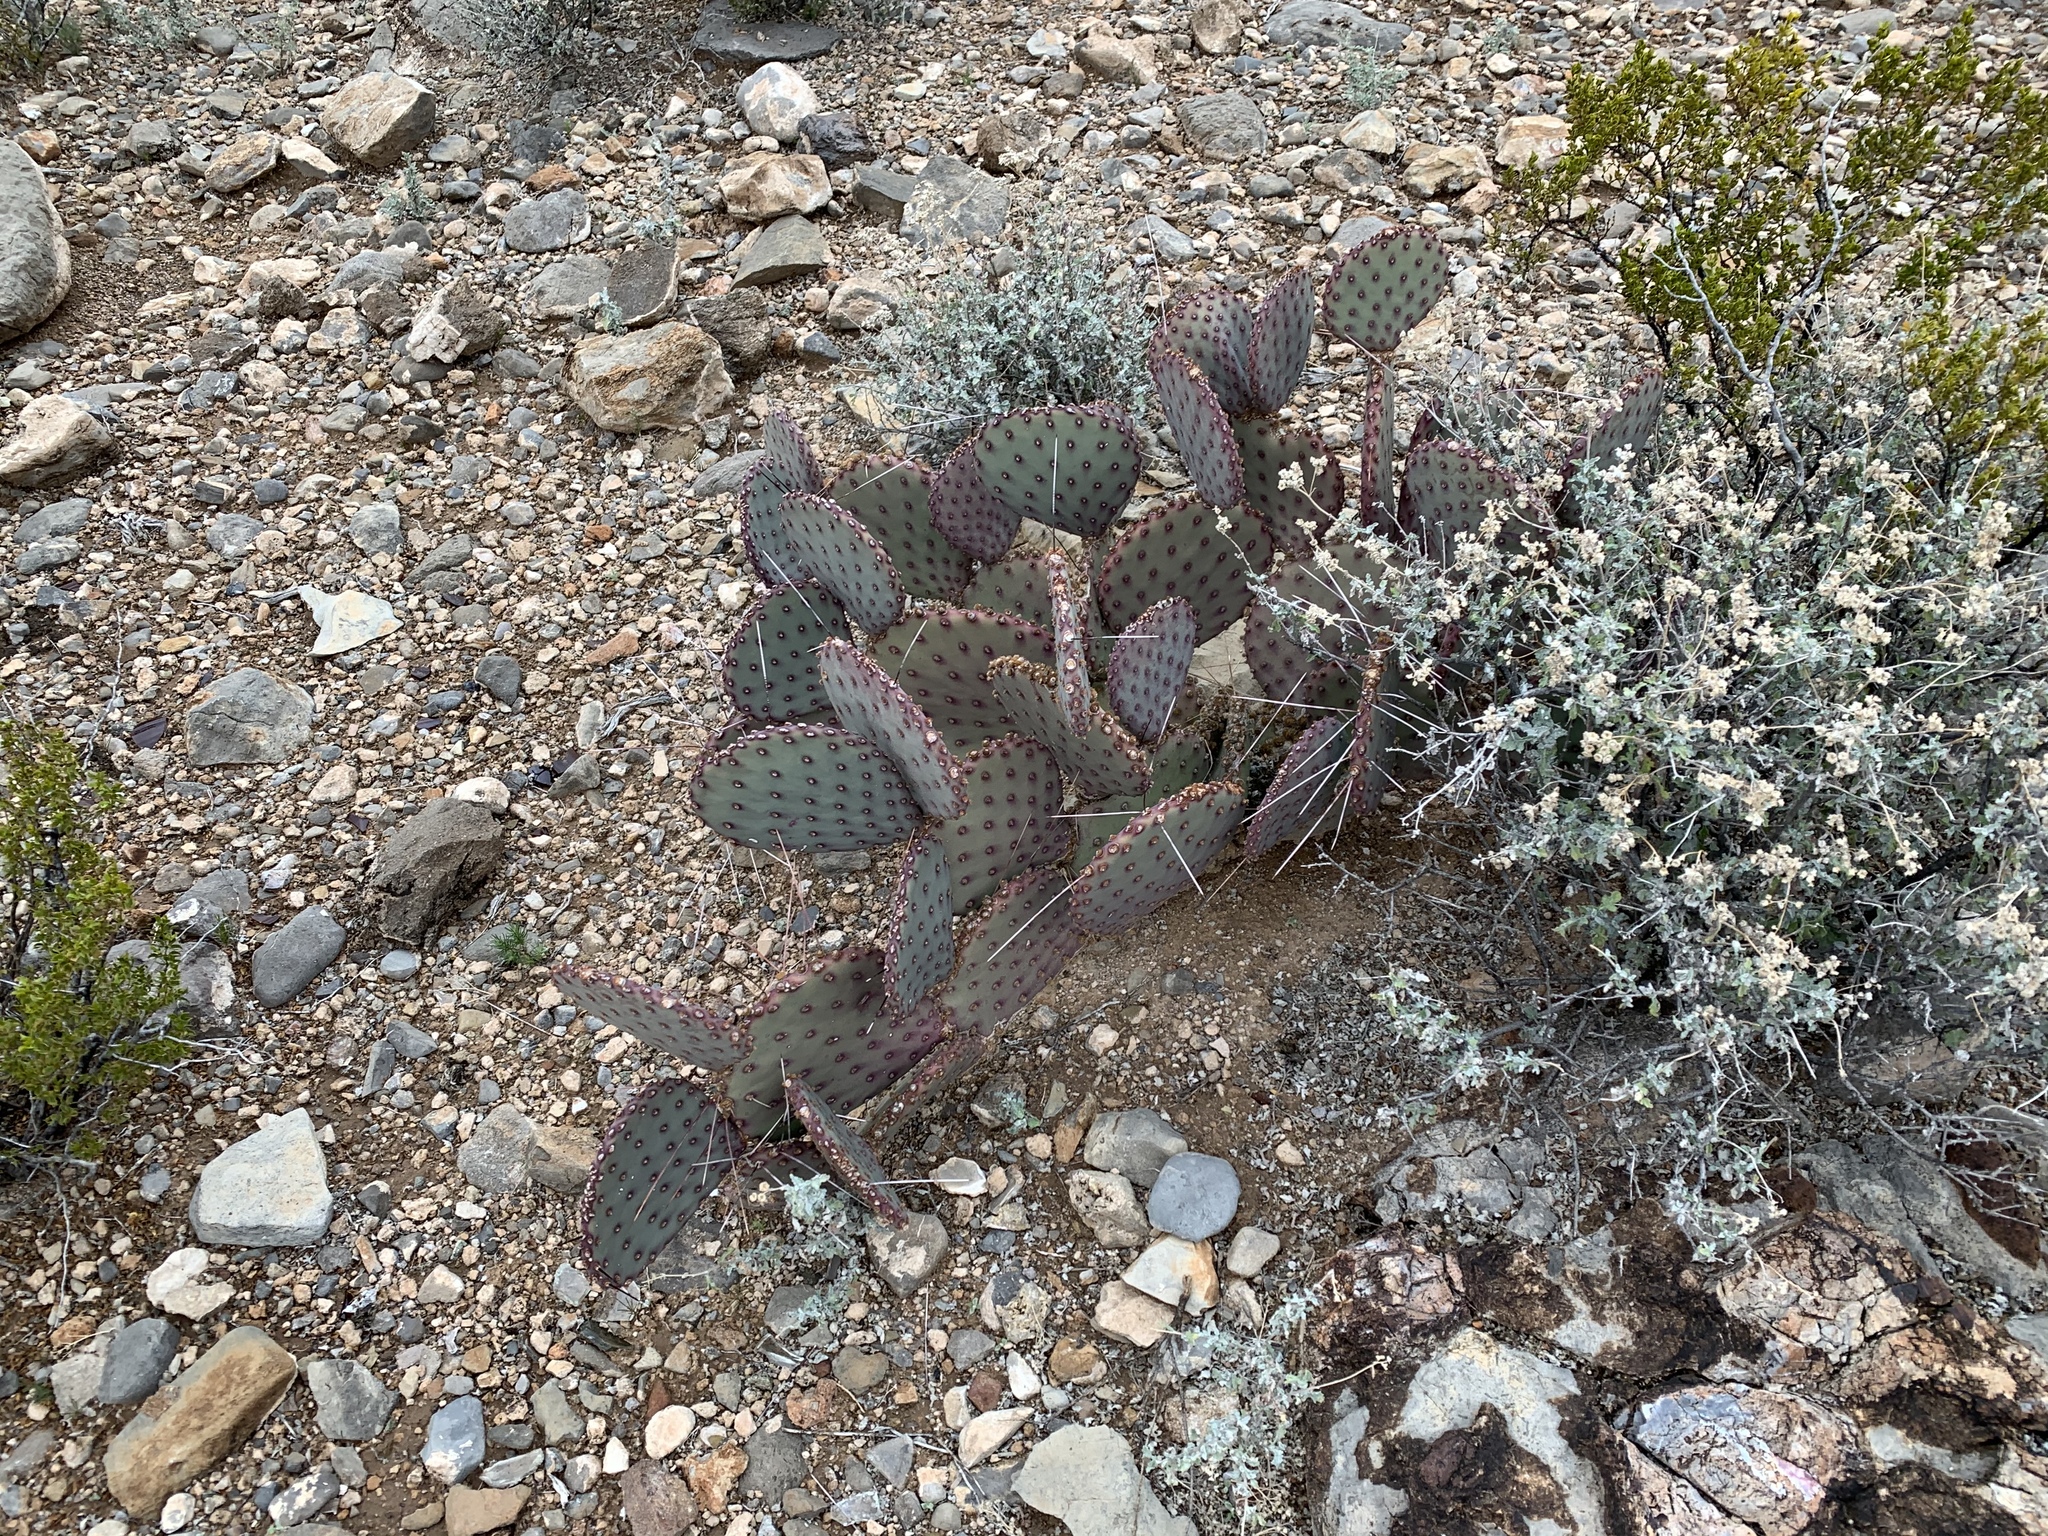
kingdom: Plantae
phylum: Tracheophyta
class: Magnoliopsida
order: Caryophyllales
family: Cactaceae
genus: Opuntia
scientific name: Opuntia macrocentra
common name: Purple prickly-pear
